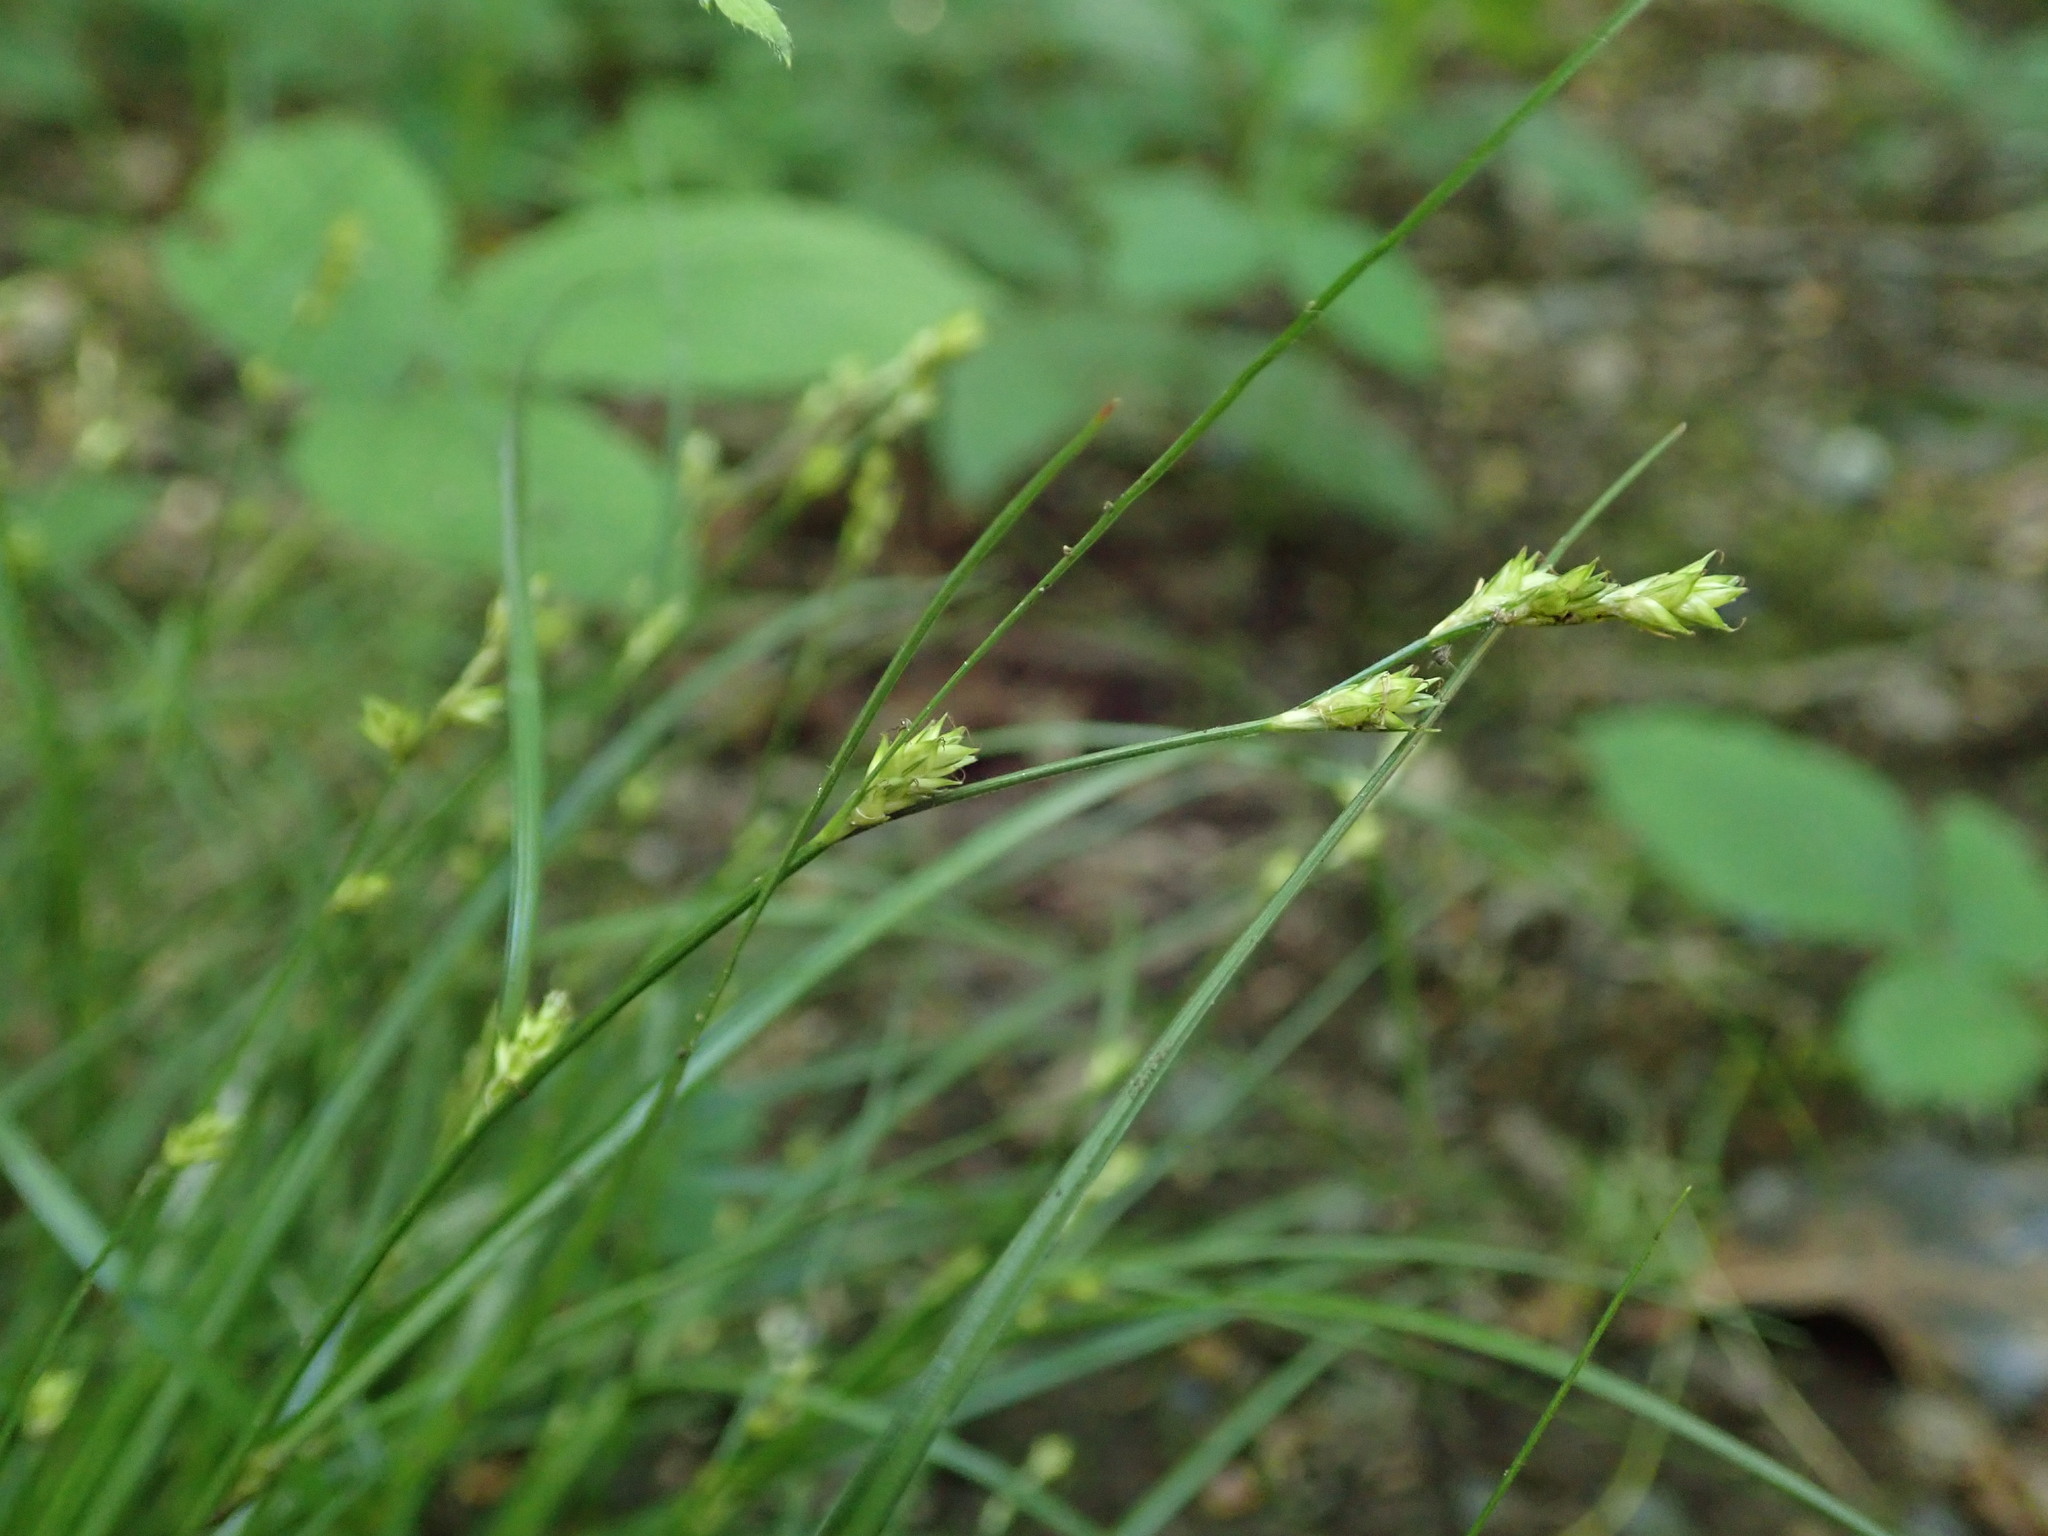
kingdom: Plantae
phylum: Tracheophyta
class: Liliopsida
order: Poales
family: Cyperaceae
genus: Carex
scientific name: Carex remota
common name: Remote sedge
